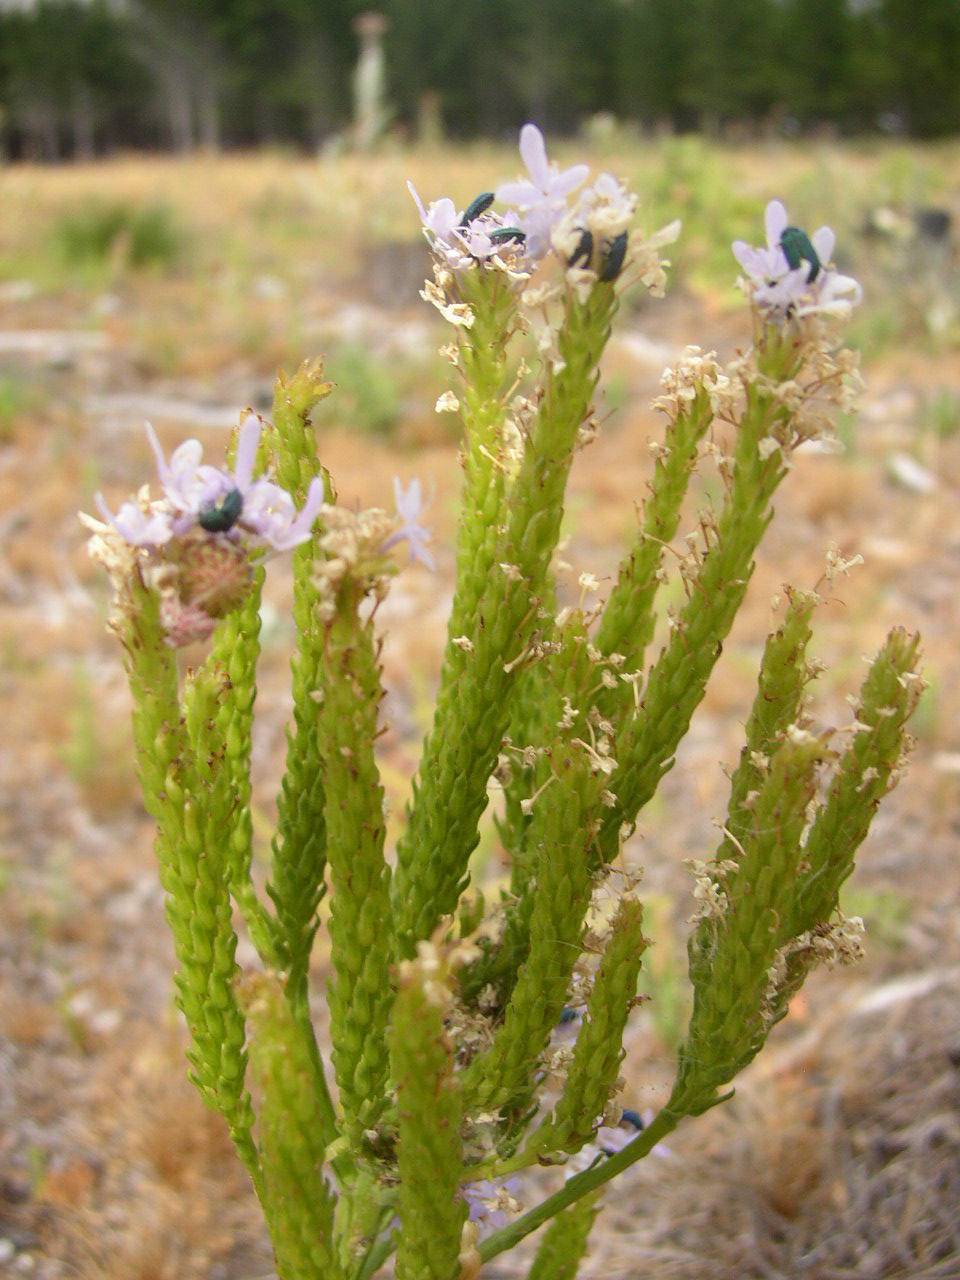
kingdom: Plantae
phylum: Tracheophyta
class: Magnoliopsida
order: Lamiales
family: Scrophulariaceae
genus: Pseudoselago
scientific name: Pseudoselago spuria
